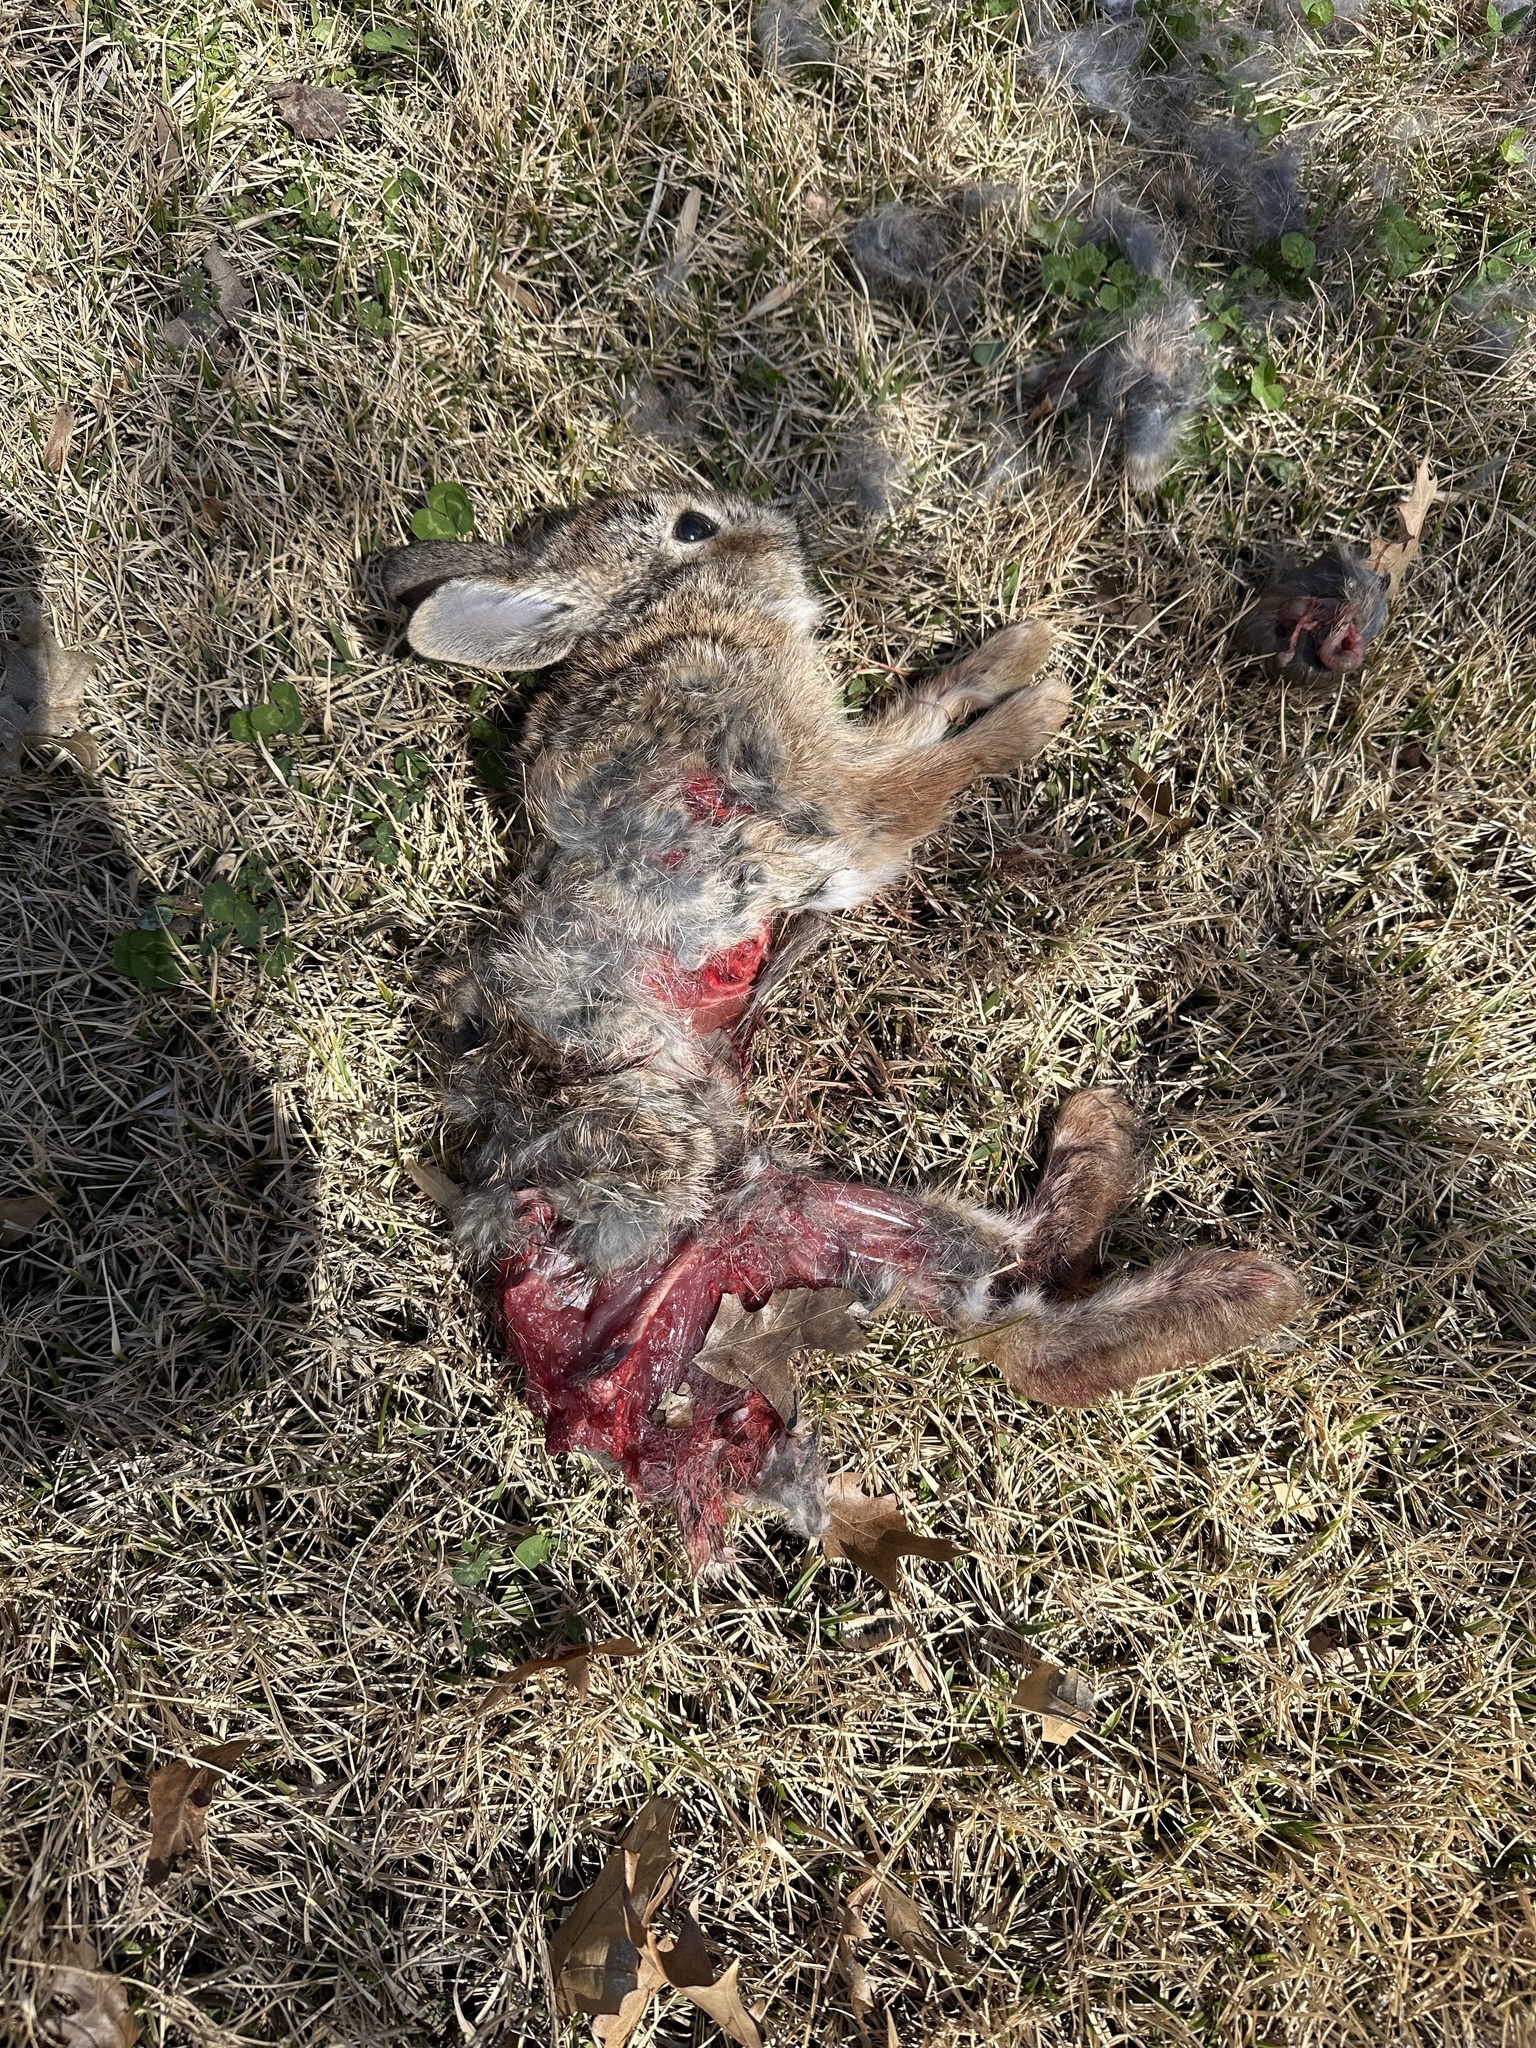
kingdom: Animalia
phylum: Chordata
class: Mammalia
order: Lagomorpha
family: Leporidae
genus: Sylvilagus
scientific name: Sylvilagus floridanus
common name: Eastern cottontail
